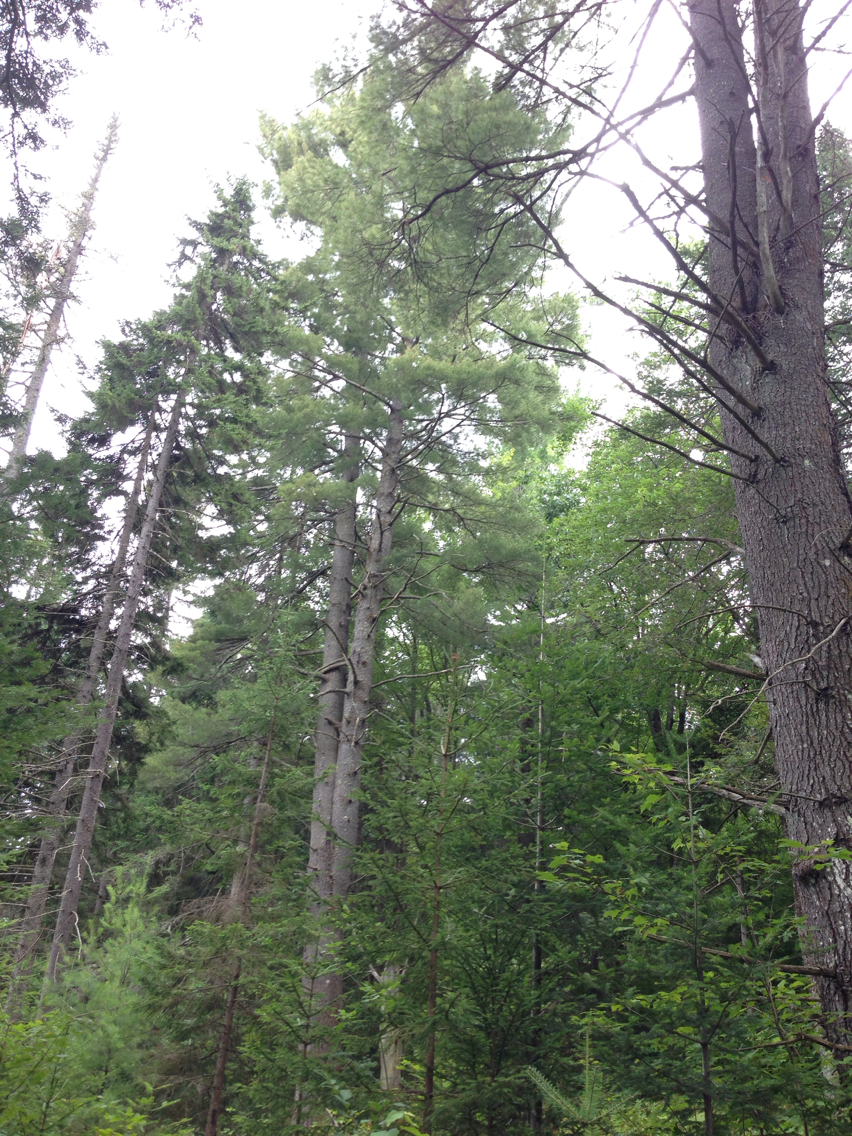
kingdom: Plantae
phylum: Tracheophyta
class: Pinopsida
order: Pinales
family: Pinaceae
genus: Pinus
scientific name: Pinus strobus
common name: Weymouth pine
